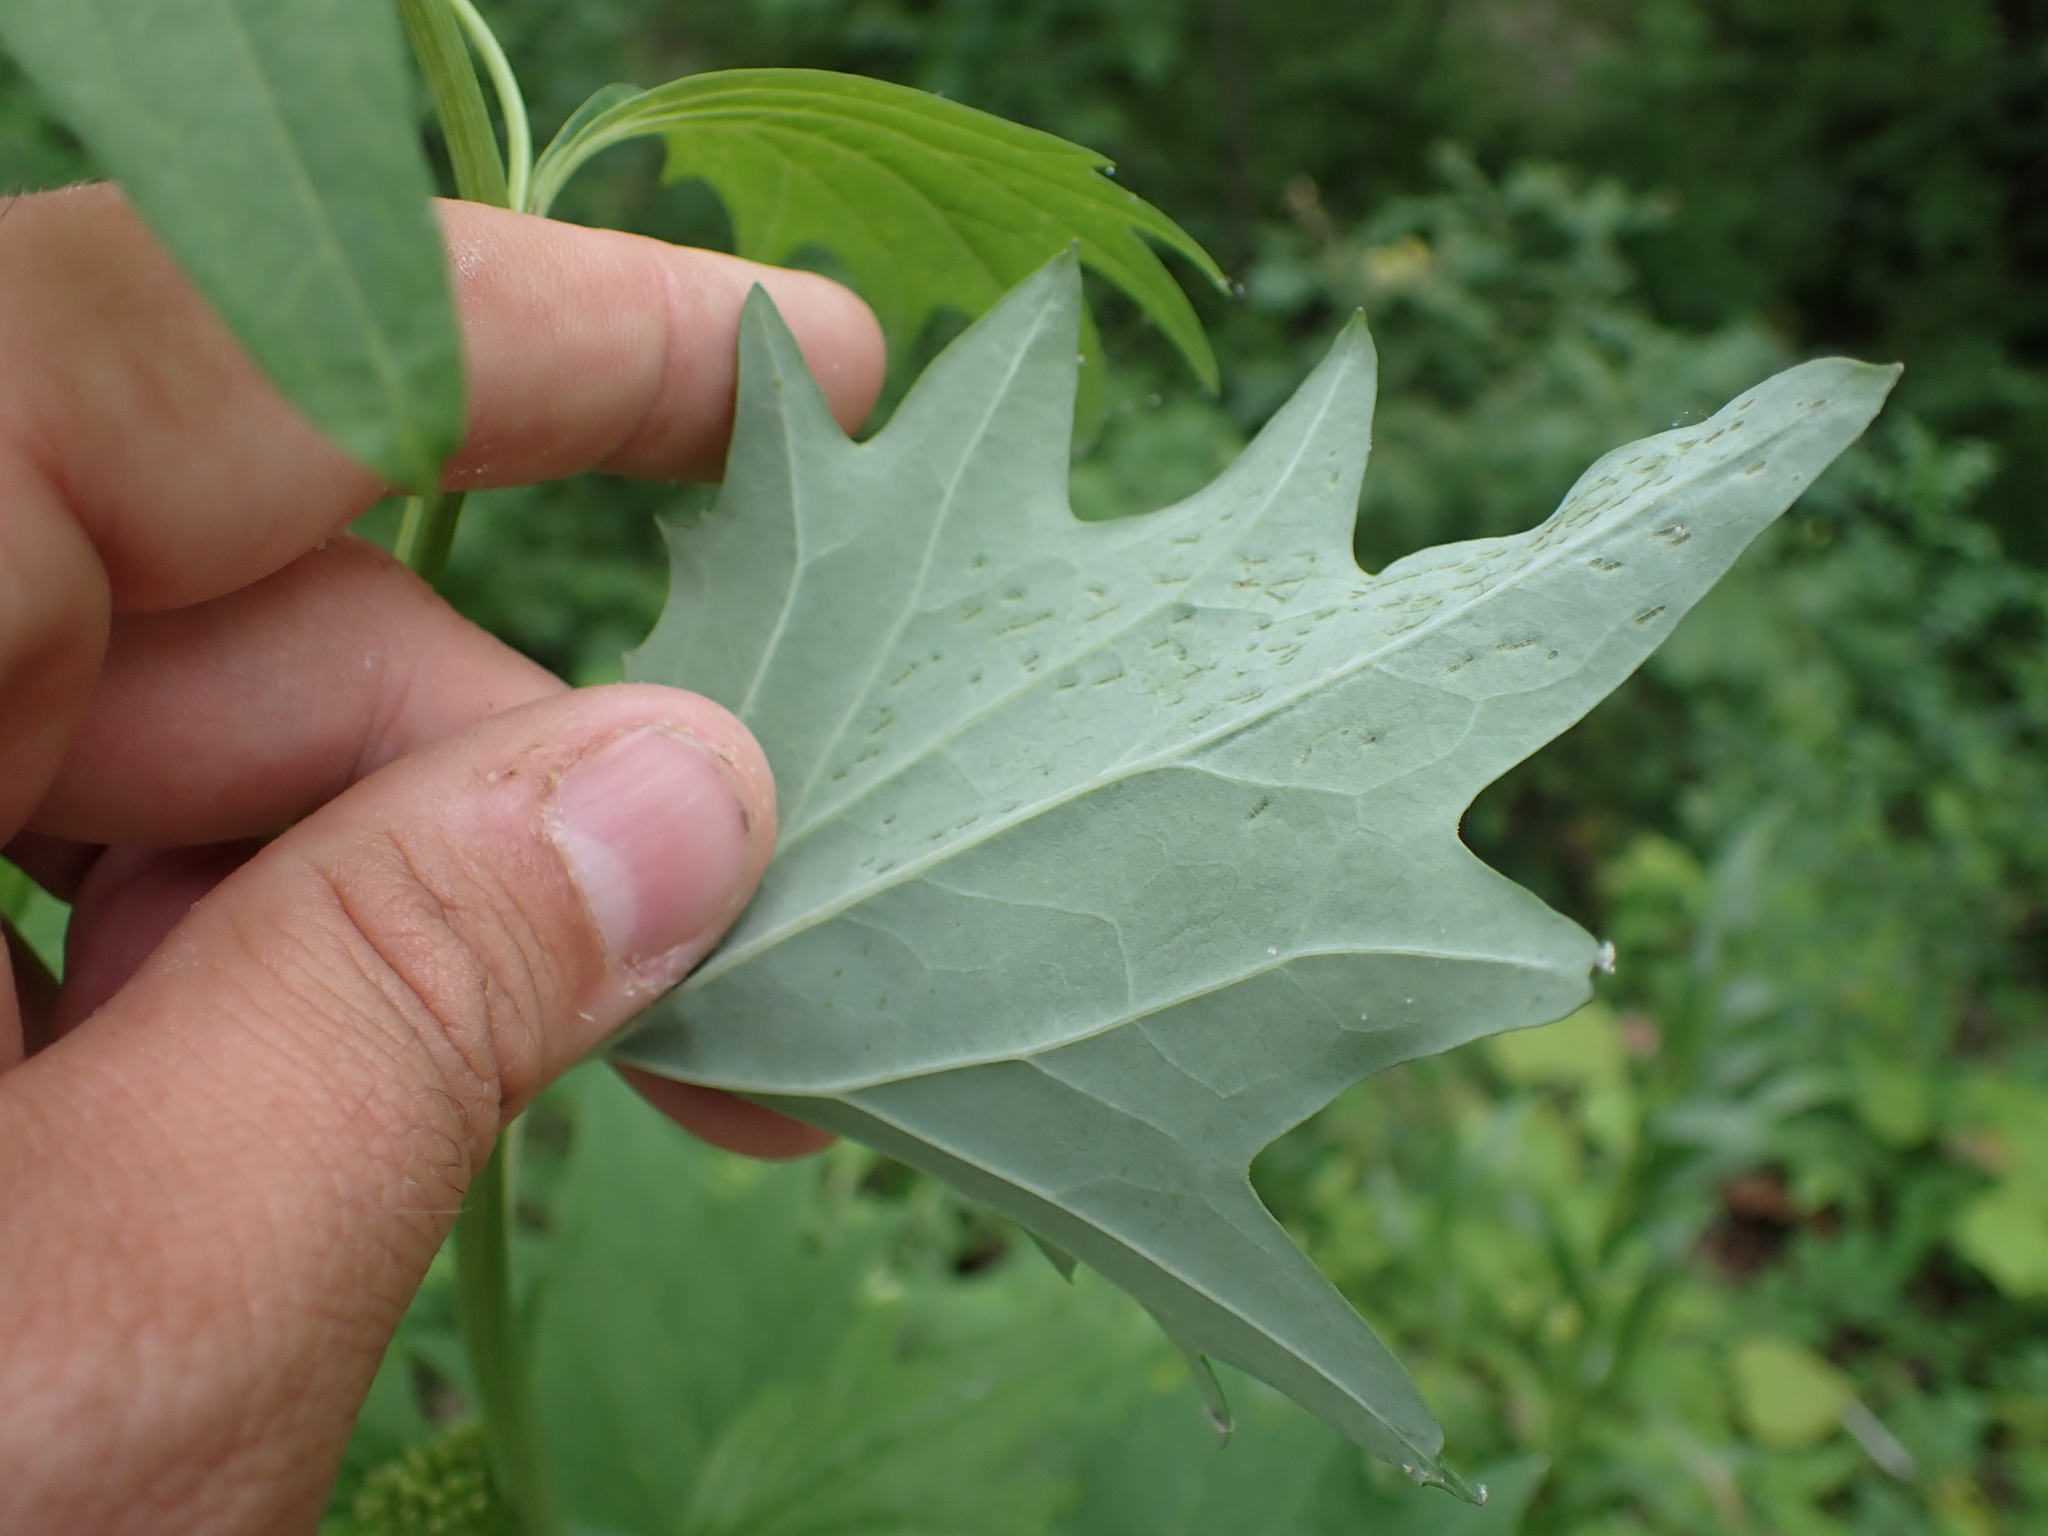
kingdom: Plantae
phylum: Tracheophyta
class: Magnoliopsida
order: Asterales
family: Asteraceae
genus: Arnoglossum
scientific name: Arnoglossum atriplicifolium
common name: Pale indian-plantain
